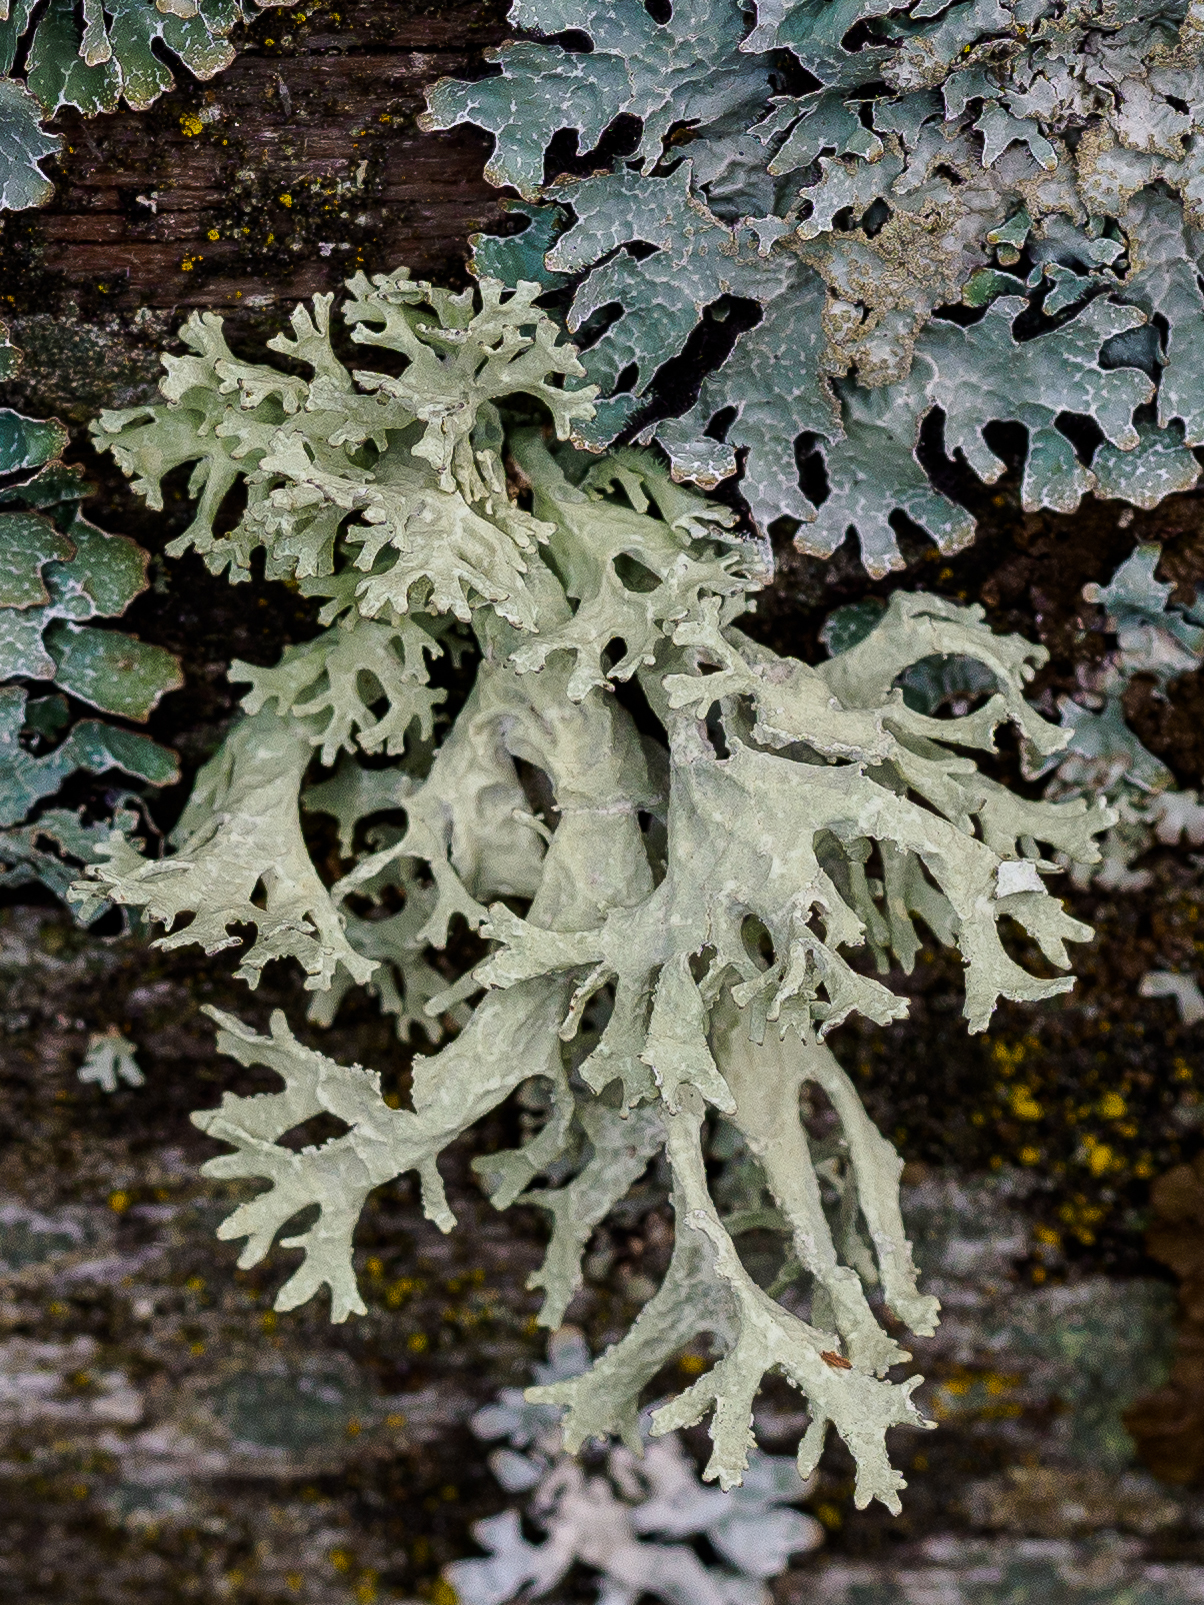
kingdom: Fungi
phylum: Ascomycota
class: Lecanoromycetes
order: Lecanorales
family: Parmeliaceae
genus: Evernia
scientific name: Evernia prunastri
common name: Oak moss
